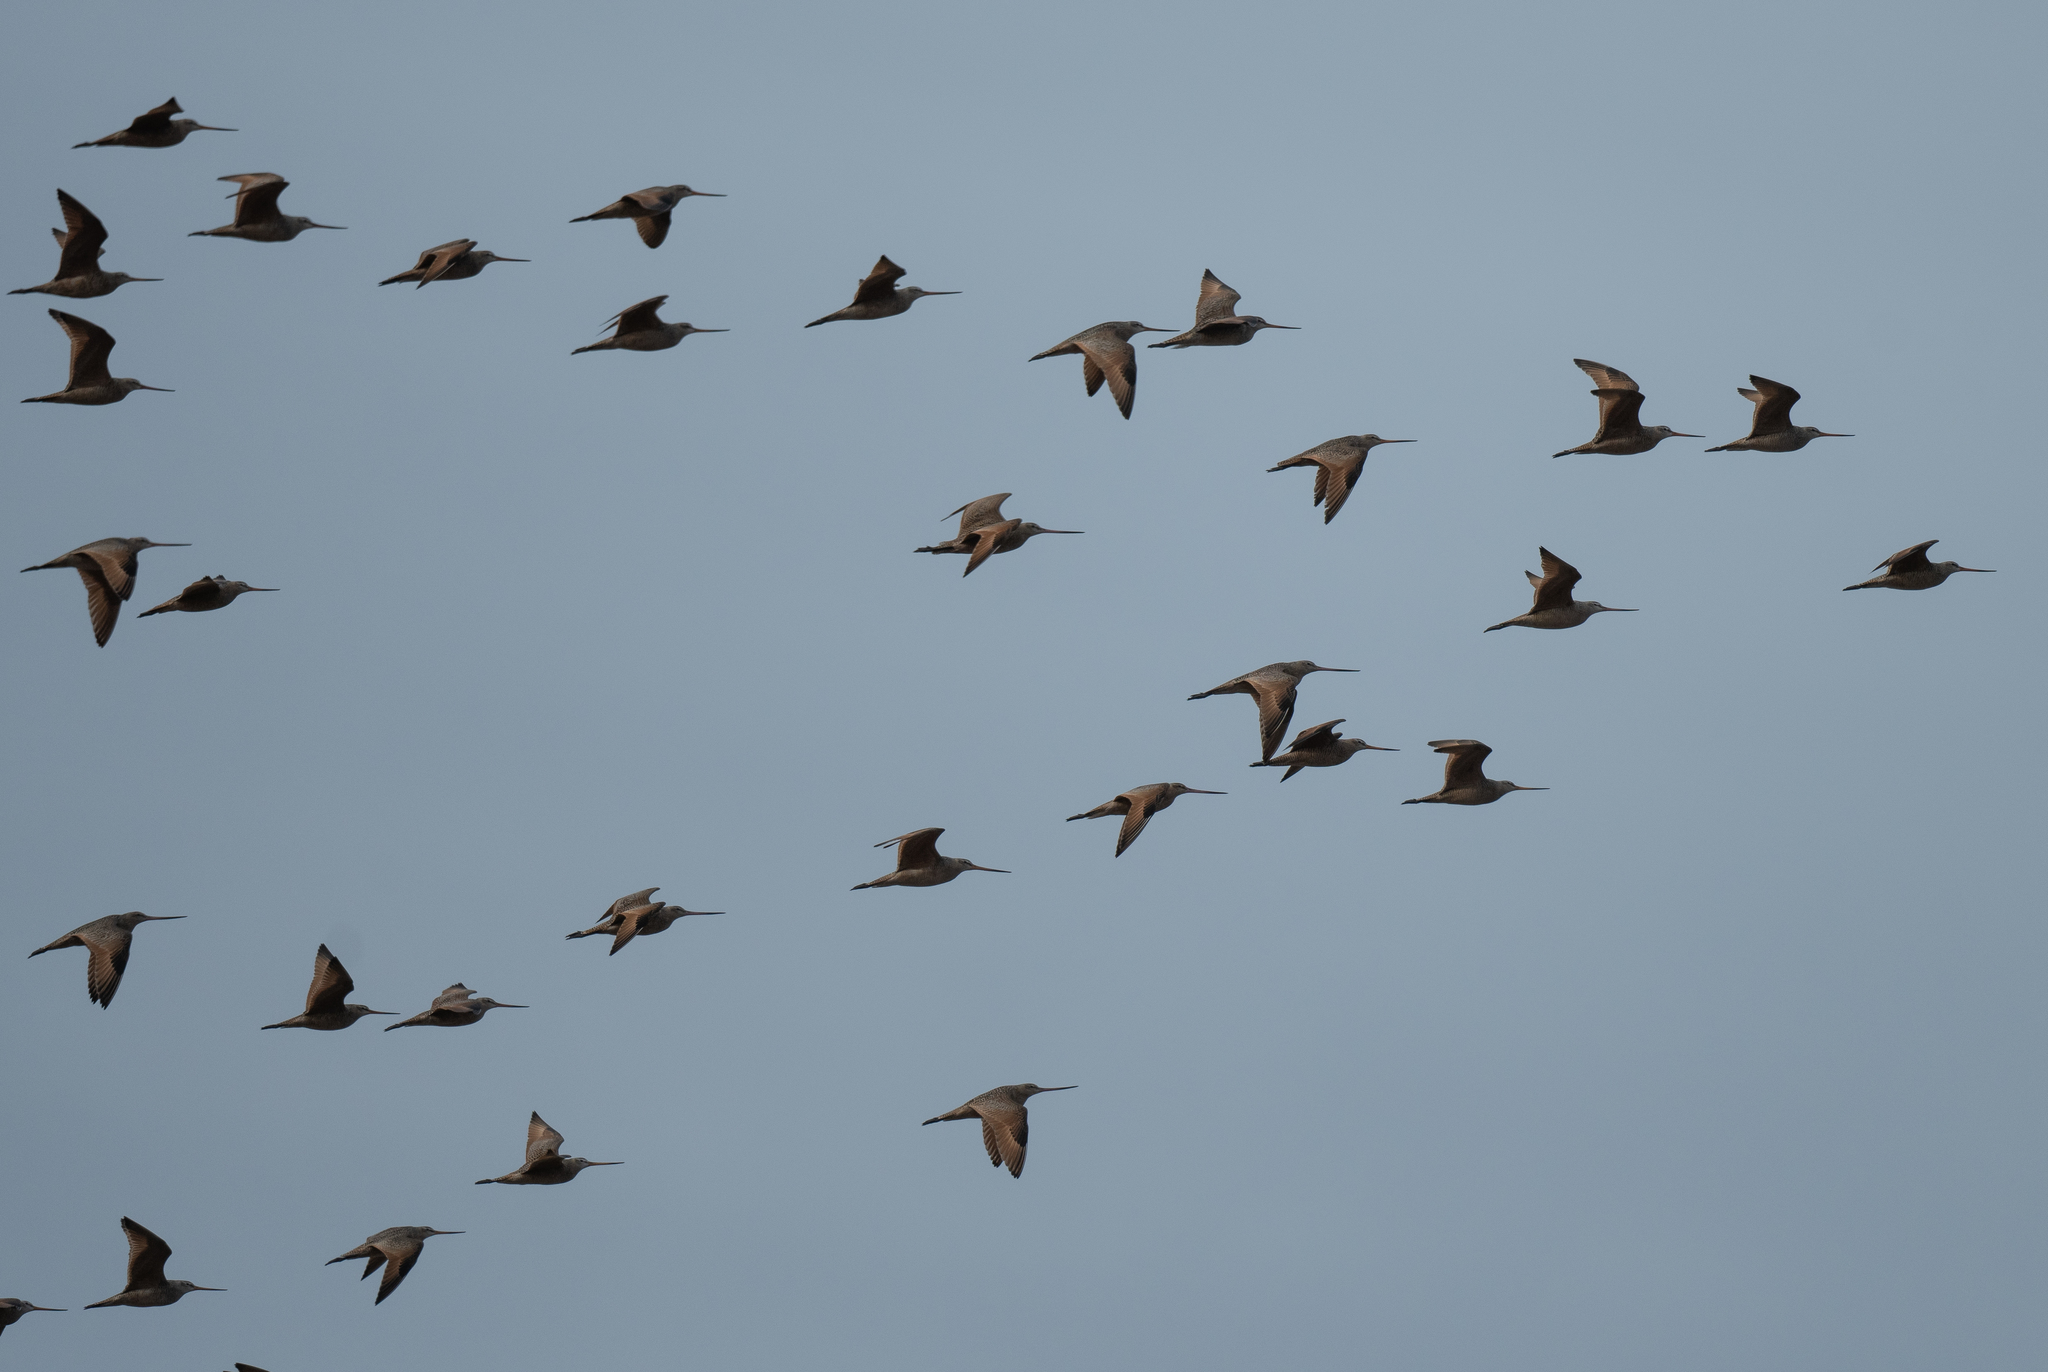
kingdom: Animalia
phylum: Chordata
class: Aves
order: Charadriiformes
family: Scolopacidae
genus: Limosa
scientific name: Limosa fedoa
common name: Marbled godwit
